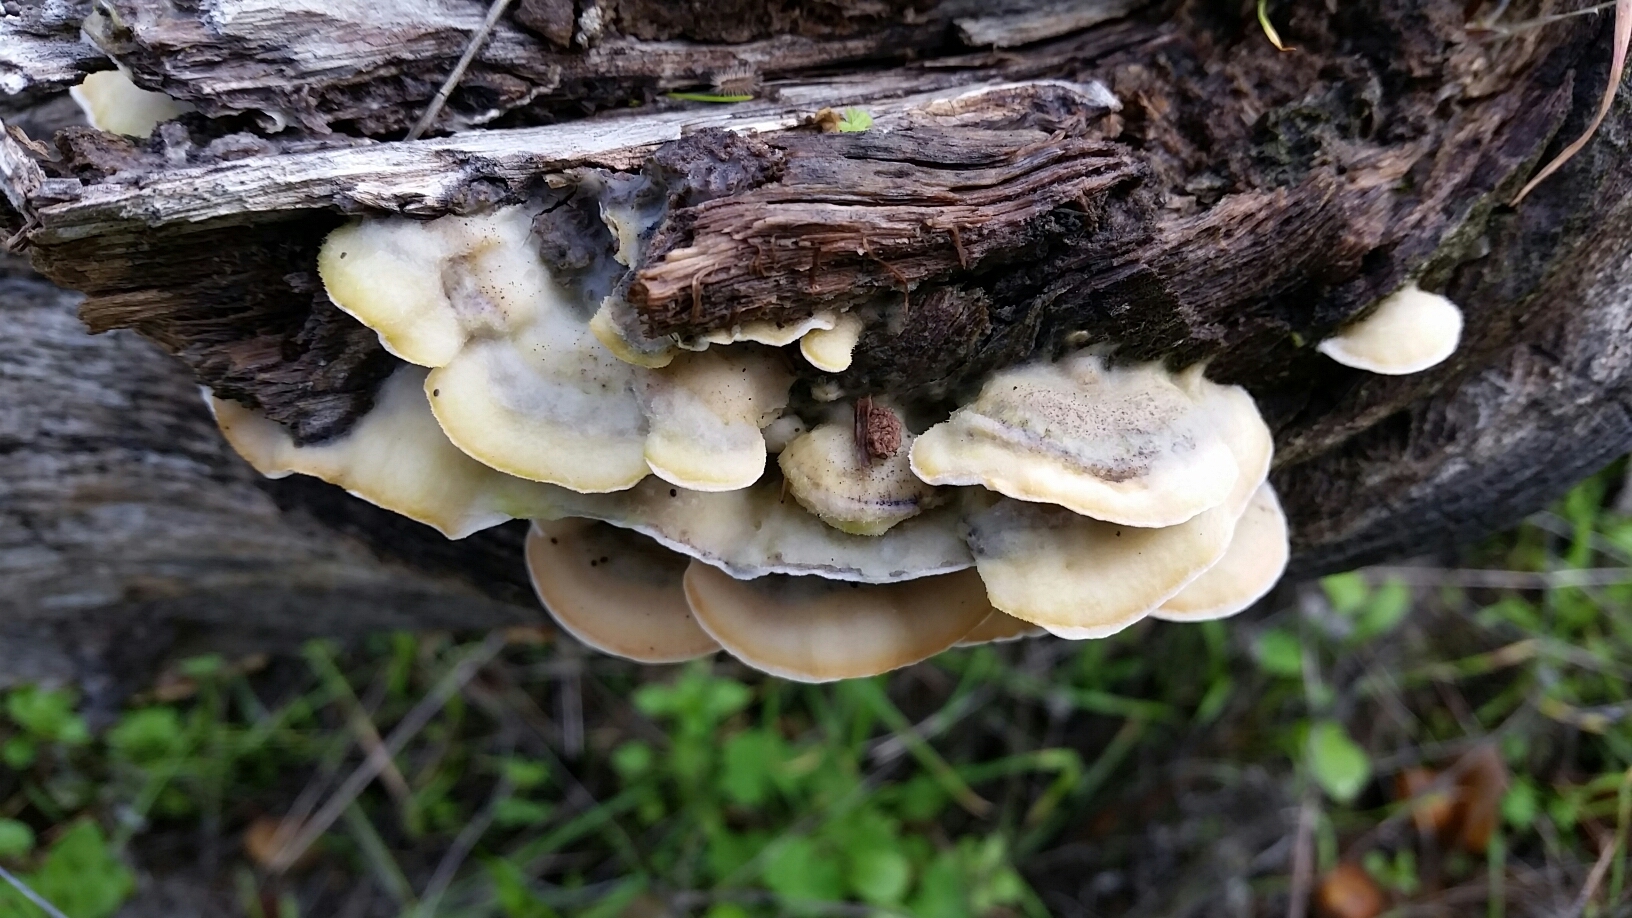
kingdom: Fungi
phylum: Basidiomycota
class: Agaricomycetes
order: Polyporales
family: Phanerochaetaceae
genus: Bjerkandera
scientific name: Bjerkandera adusta
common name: Smoky bracket
